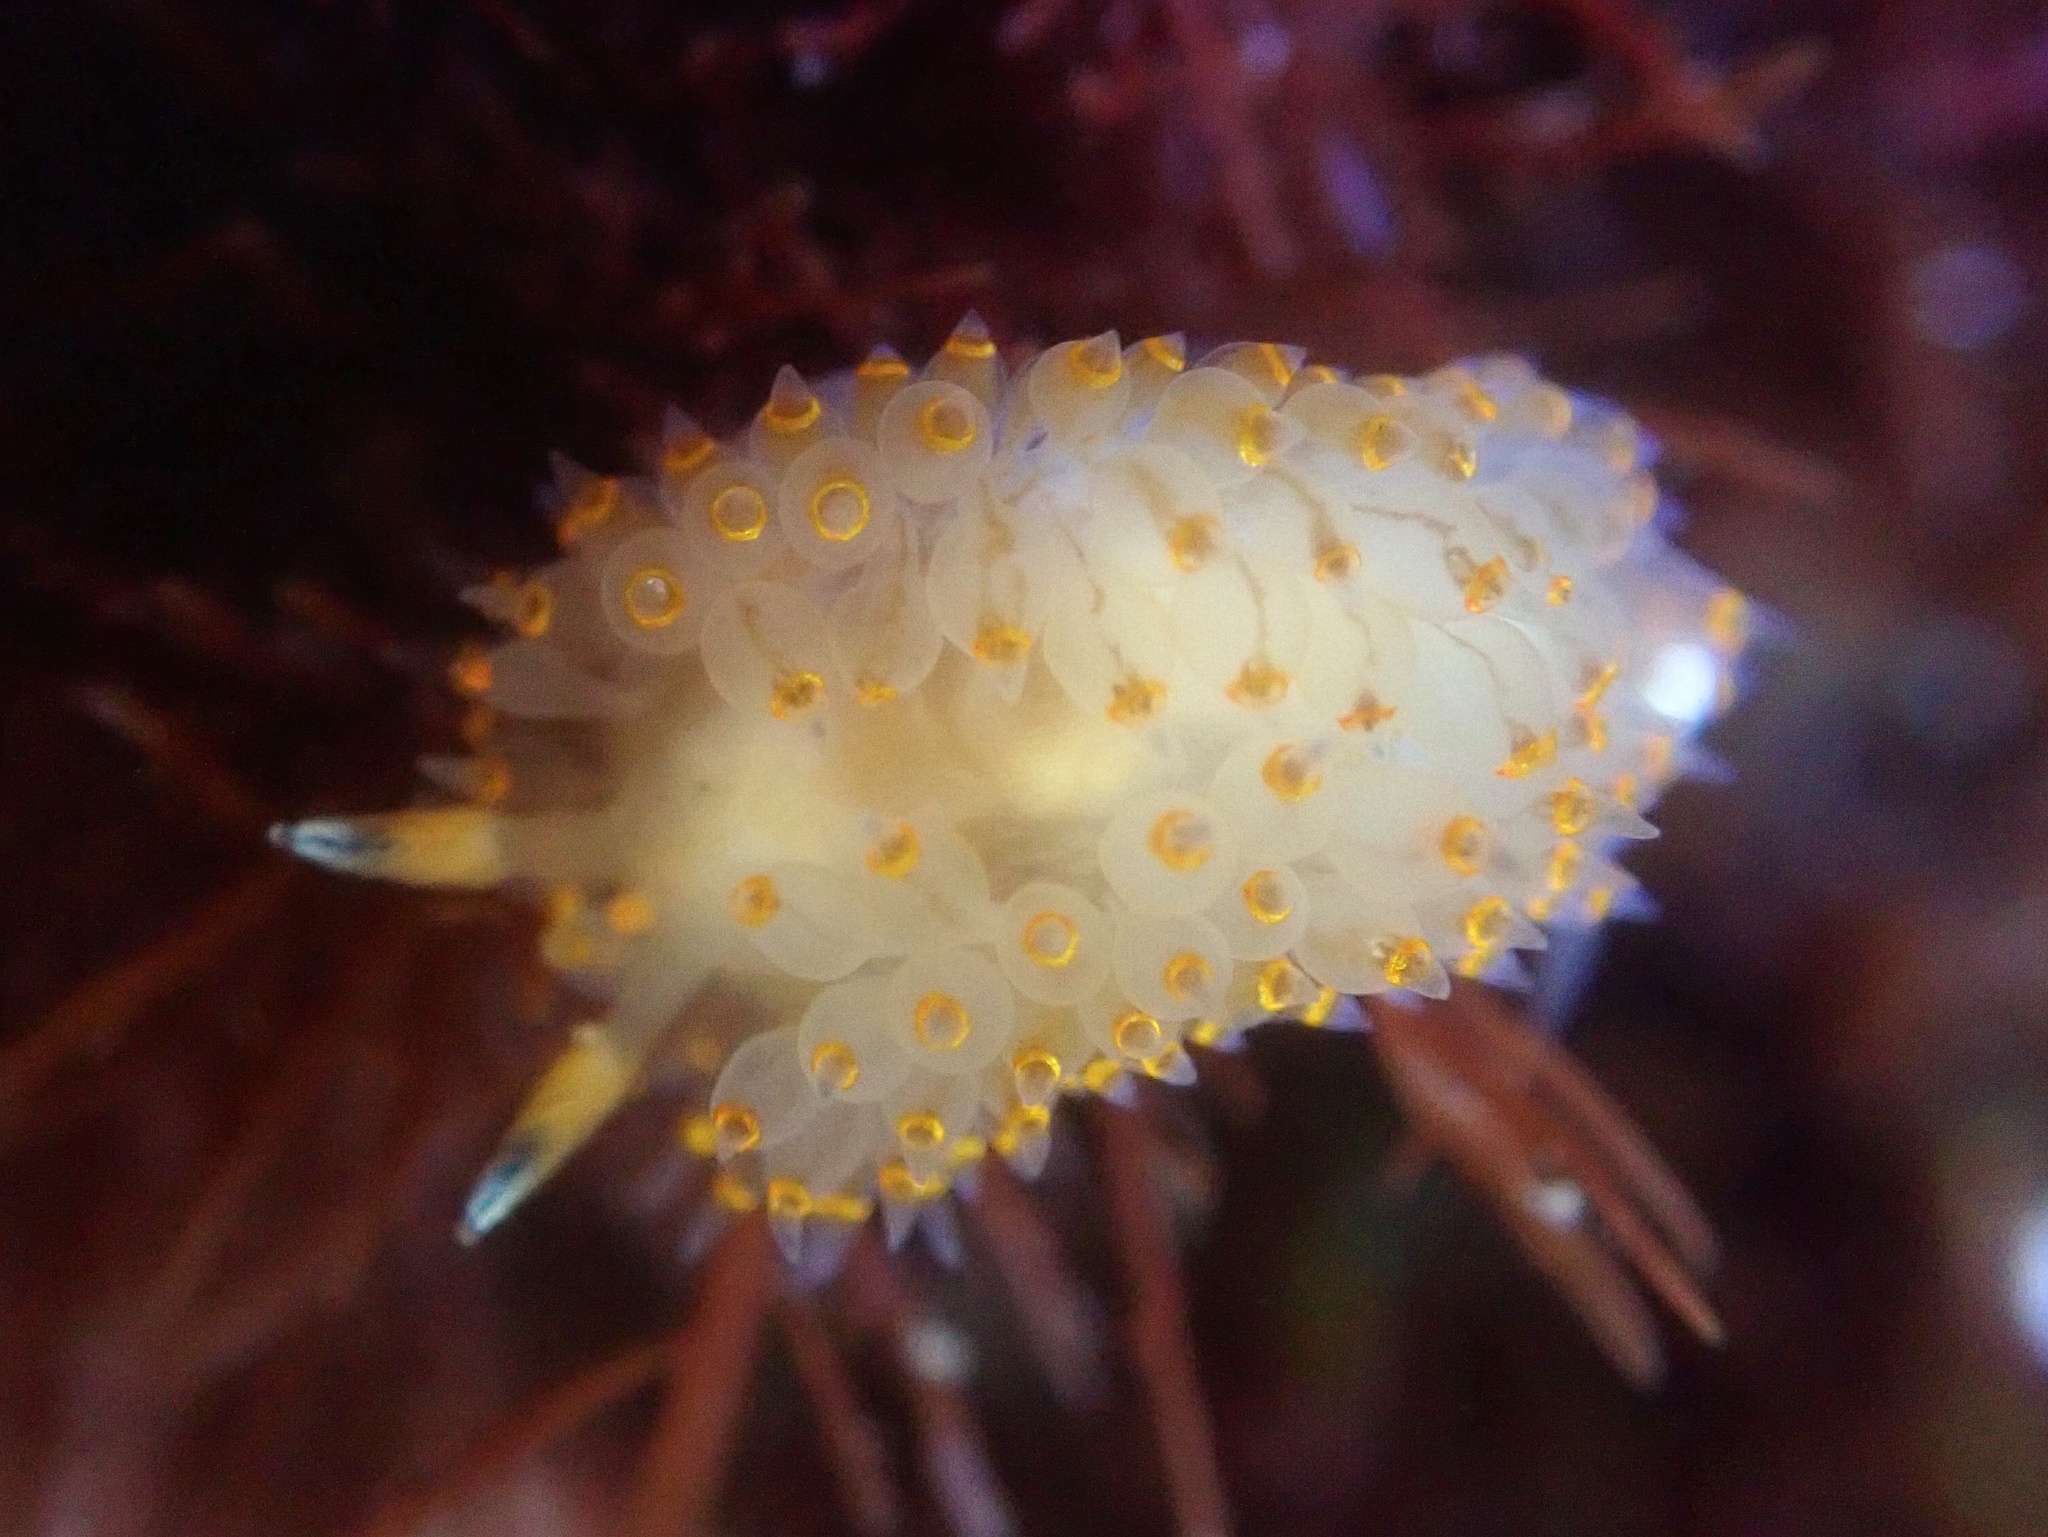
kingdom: Animalia
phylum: Mollusca
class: Gastropoda
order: Nudibranchia
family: Janolidae
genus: Antiopella
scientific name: Antiopella barbarensis
